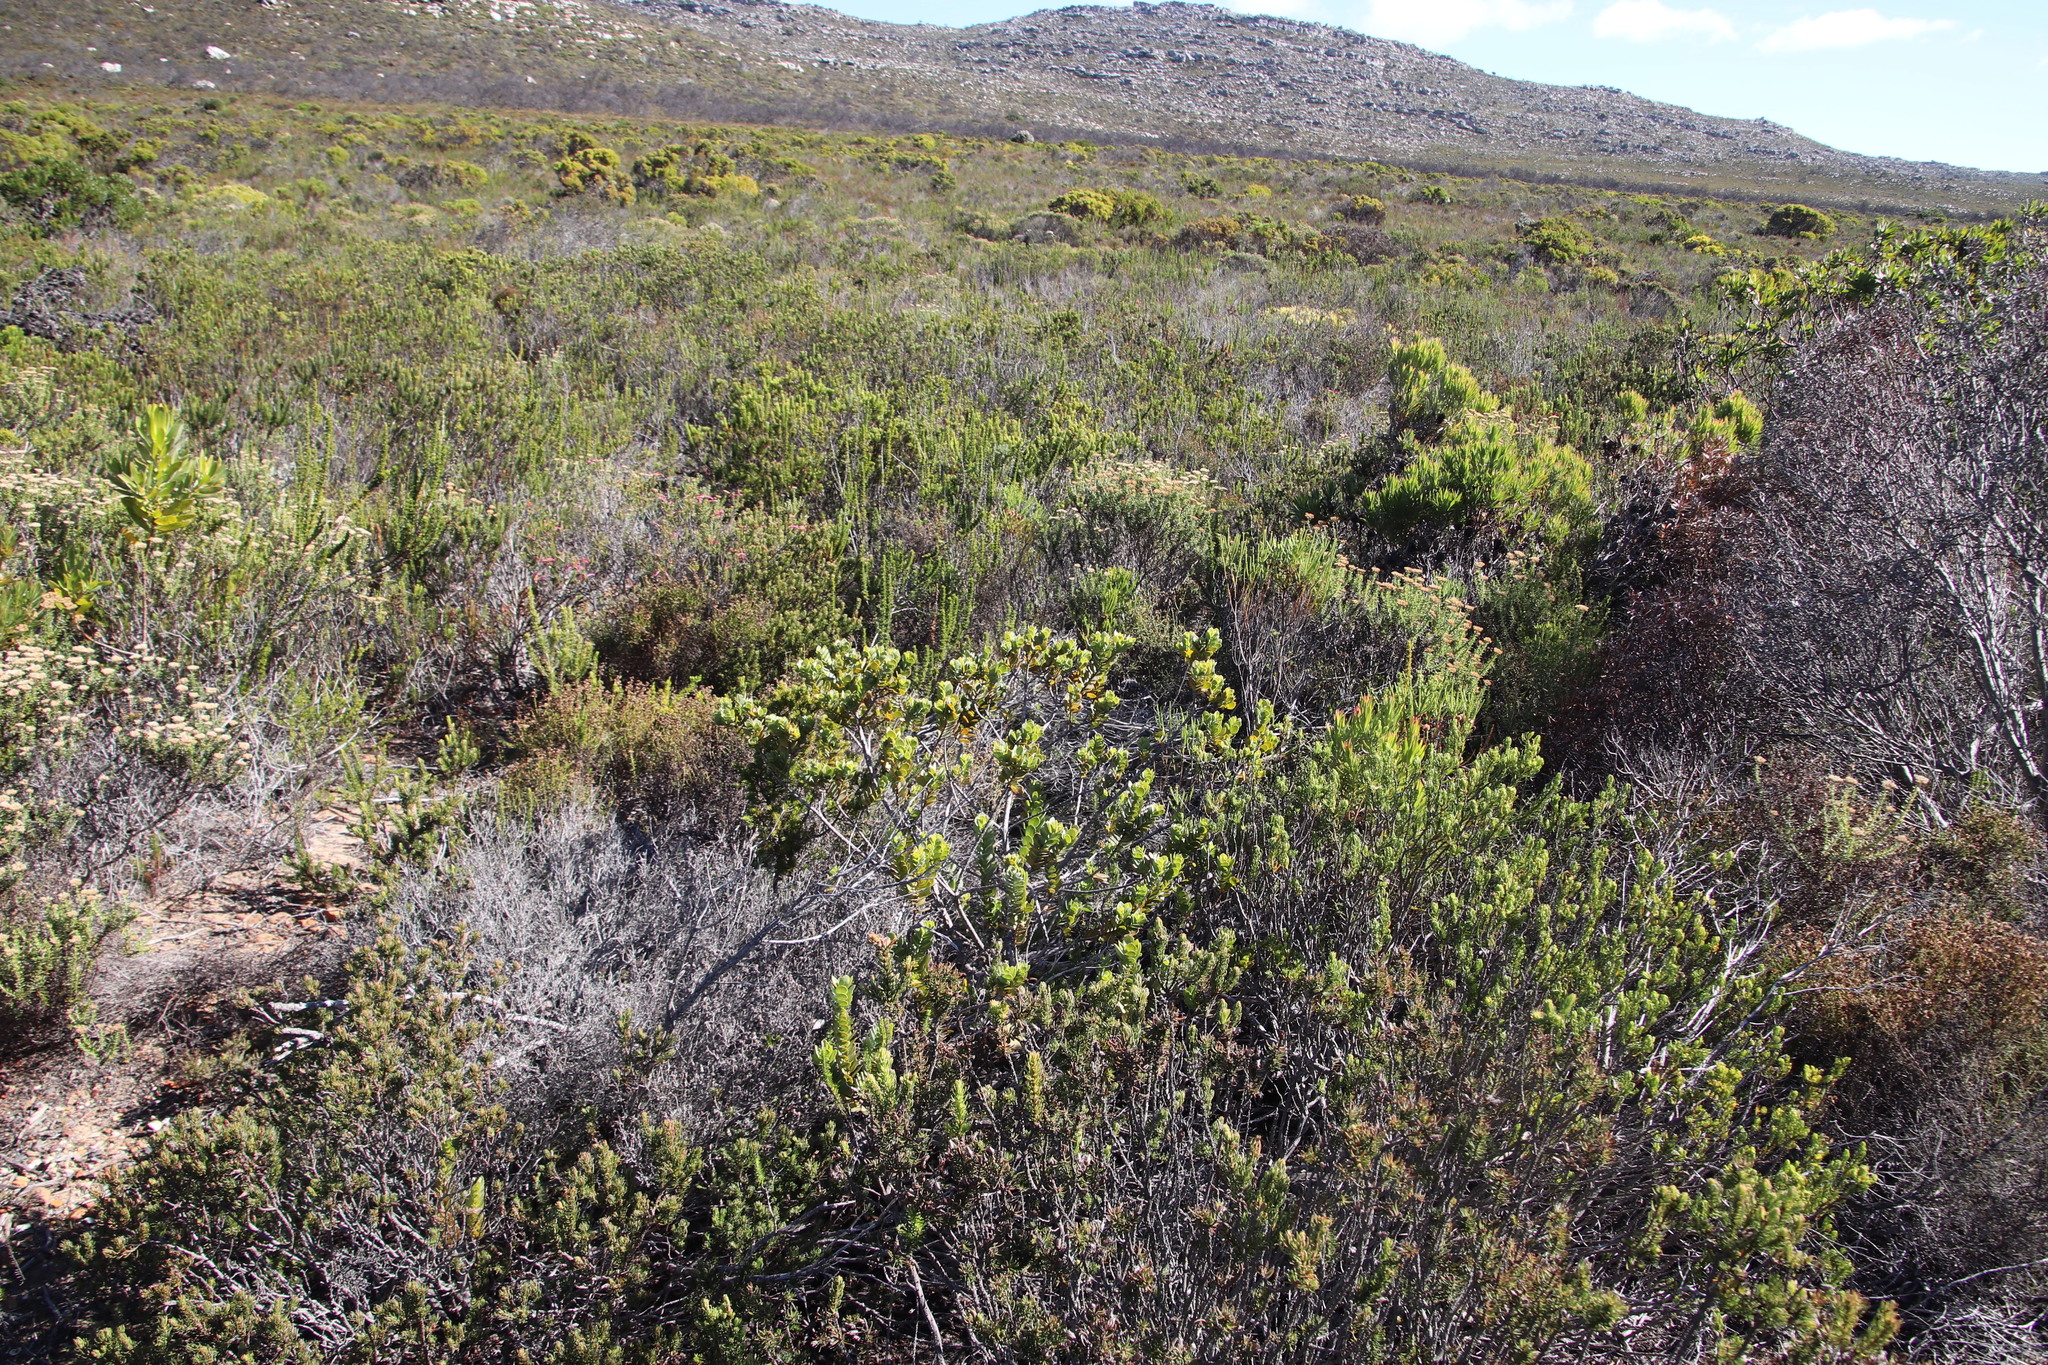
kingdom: Plantae
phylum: Tracheophyta
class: Magnoliopsida
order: Santalales
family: Santalaceae
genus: Osyris
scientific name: Osyris compressa
